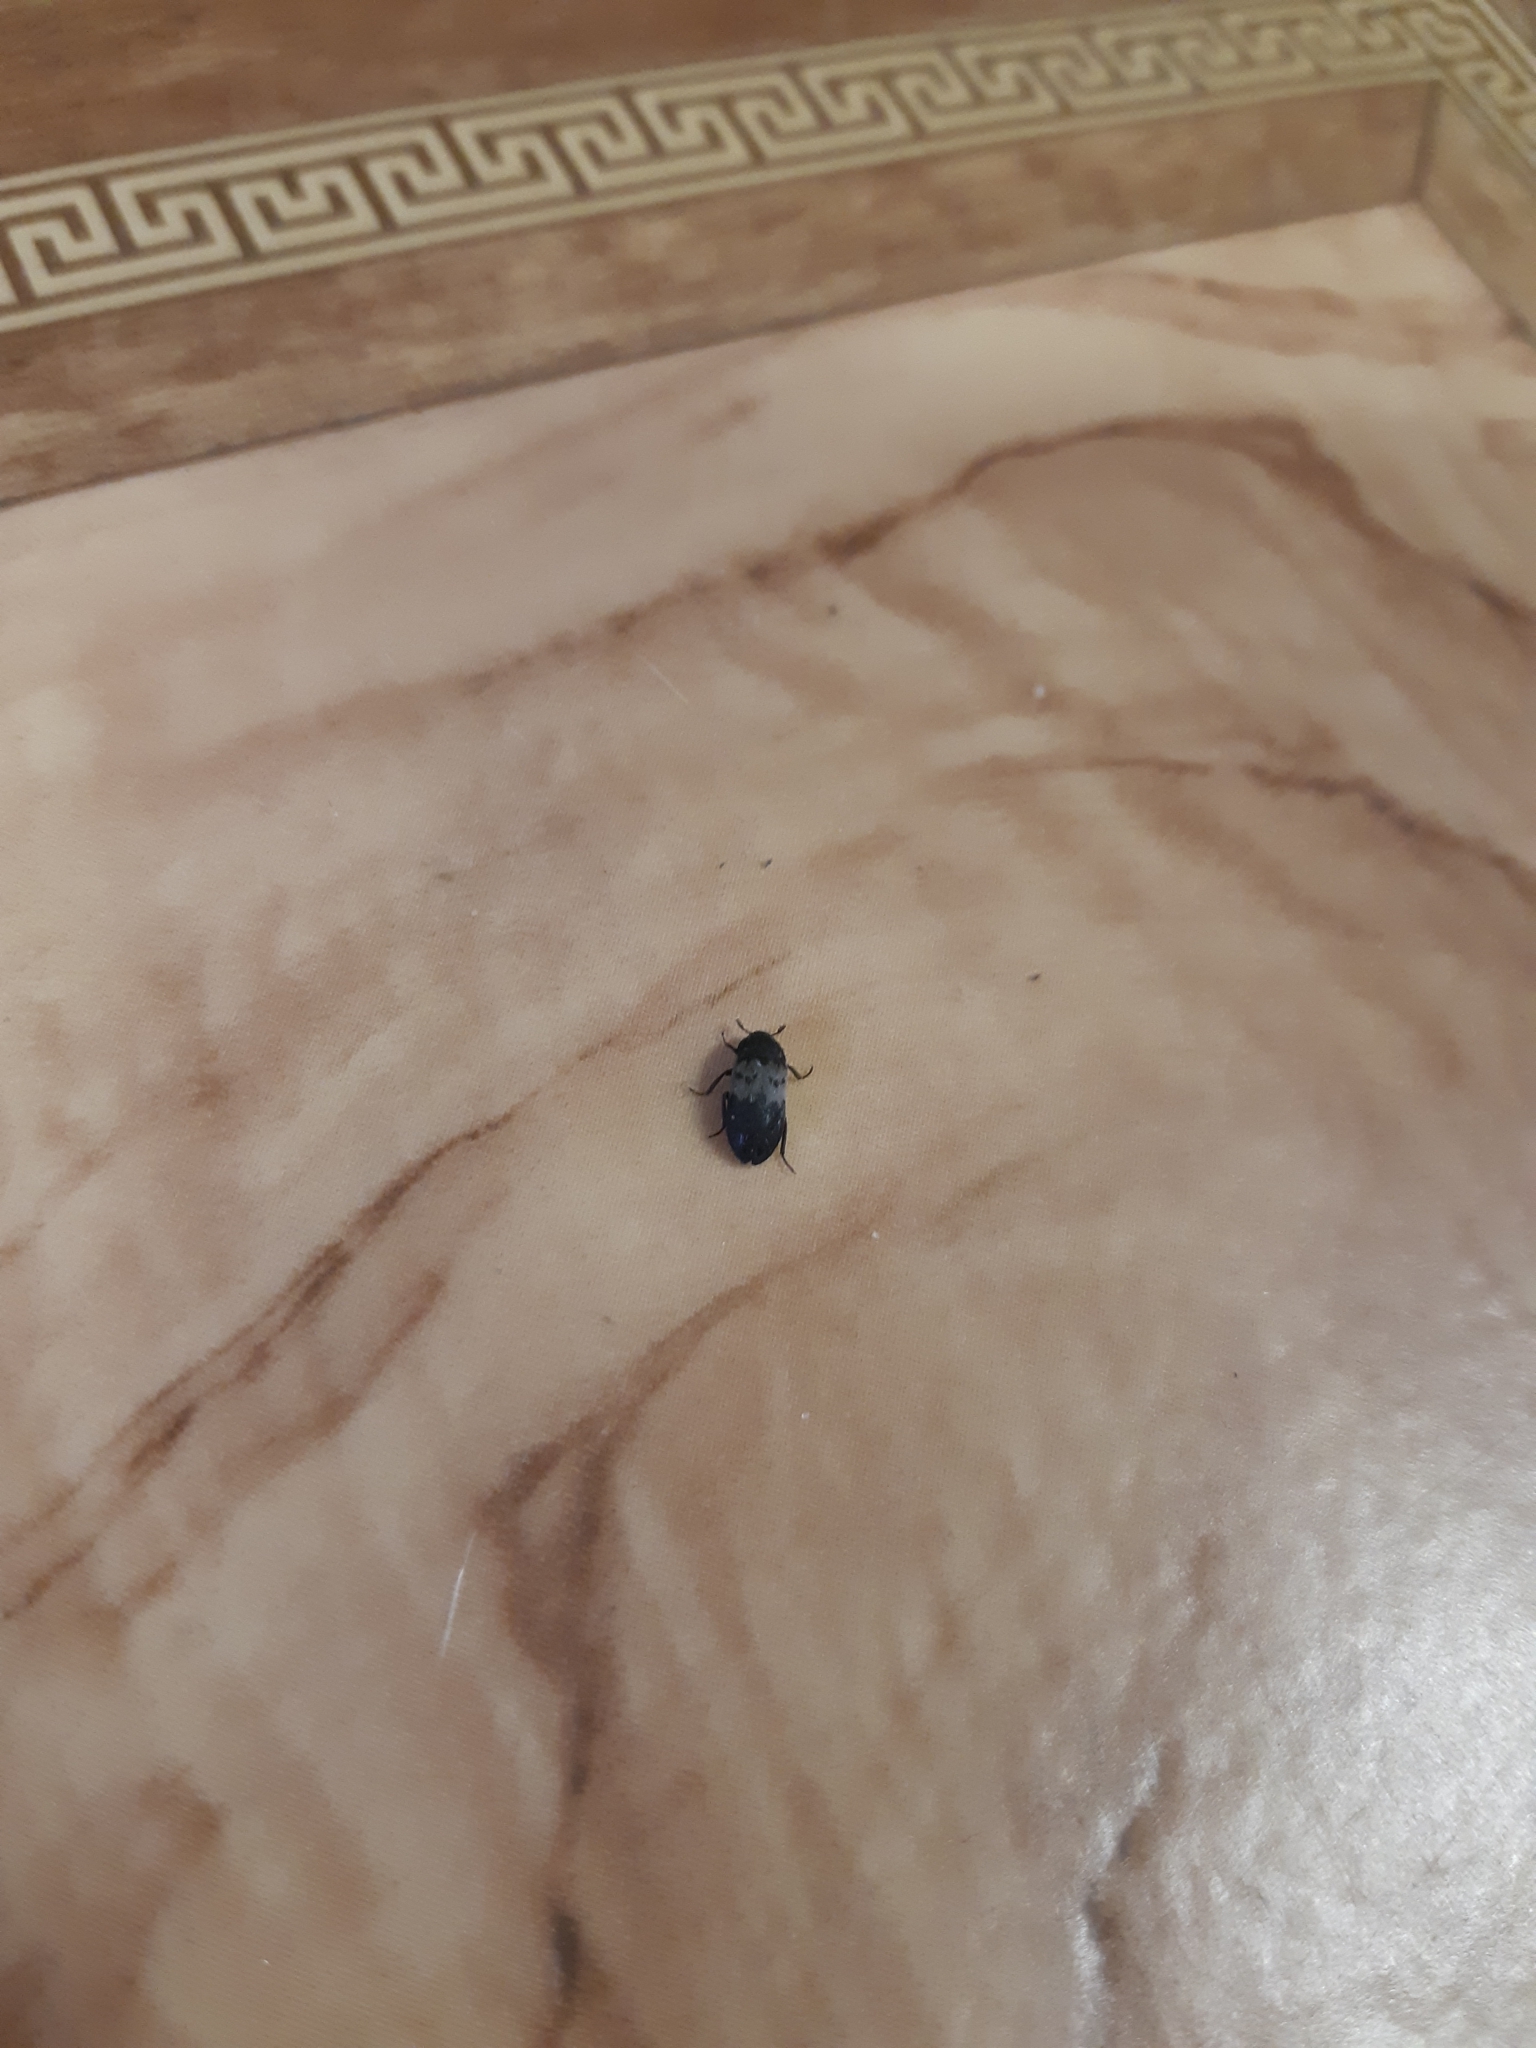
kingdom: Animalia
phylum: Arthropoda
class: Insecta
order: Coleoptera
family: Dermestidae
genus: Dermestes
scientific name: Dermestes lardarius
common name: Larder beetle
